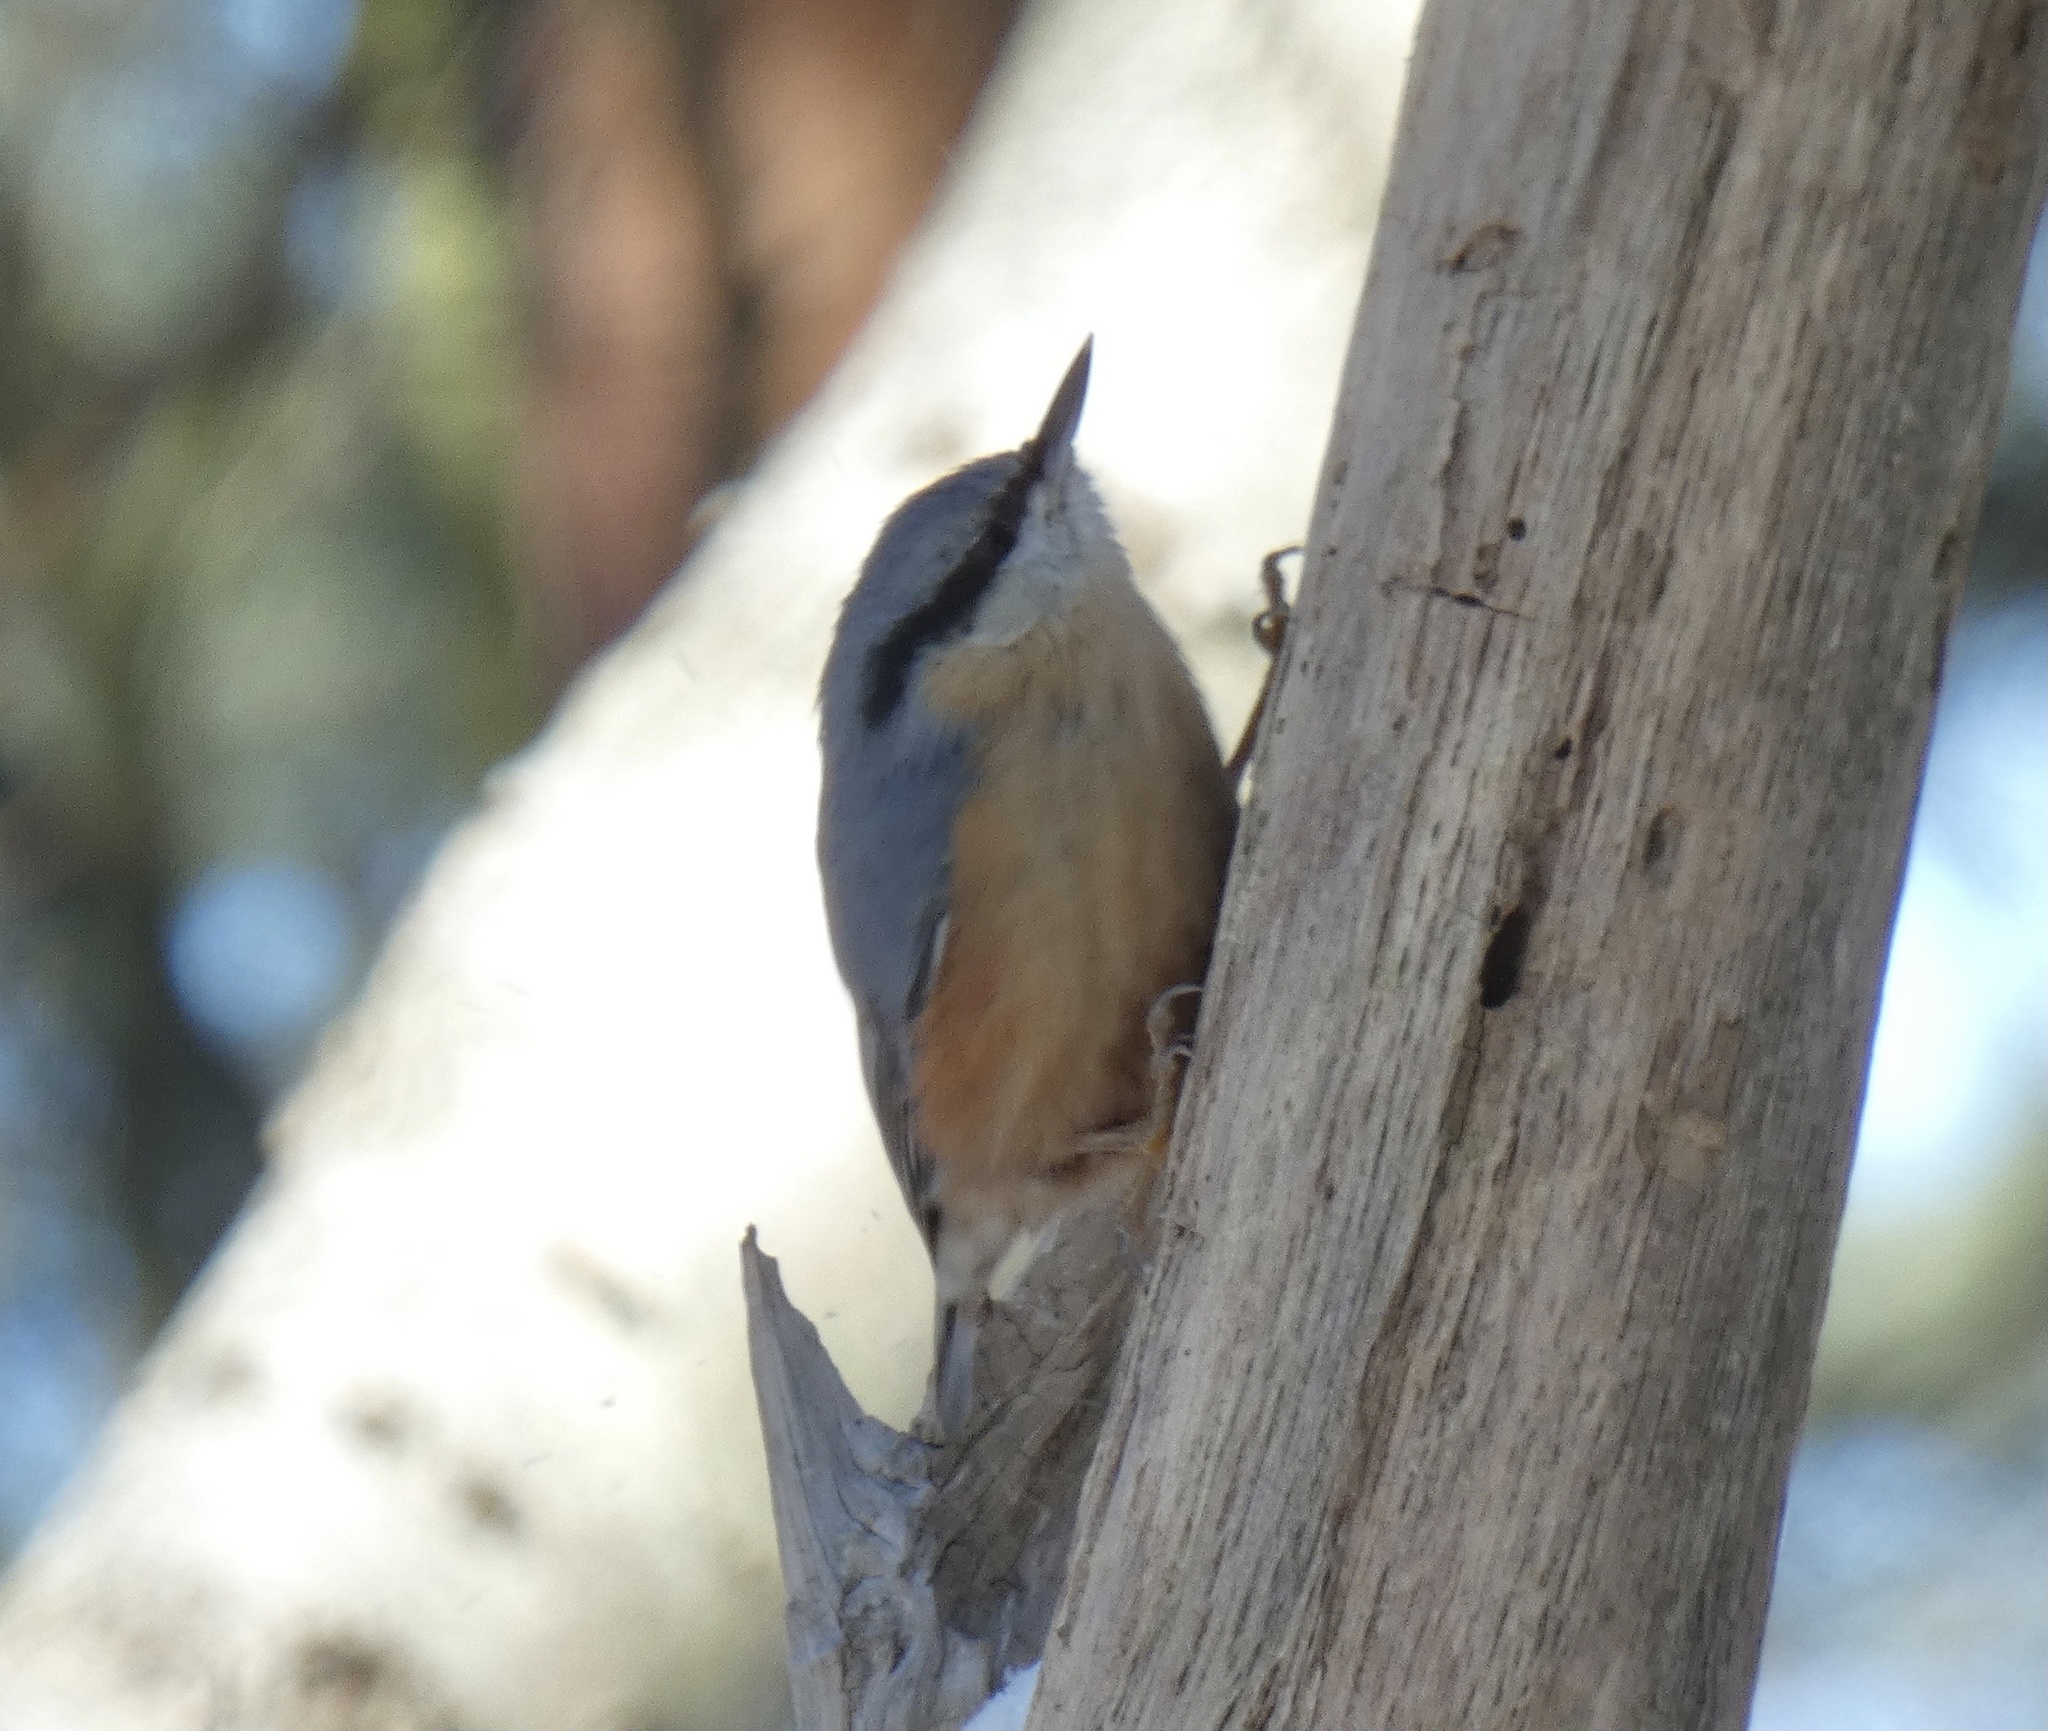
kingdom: Animalia
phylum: Chordata
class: Aves
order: Passeriformes
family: Sittidae
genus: Sitta
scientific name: Sitta europaea
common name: Eurasian nuthatch
